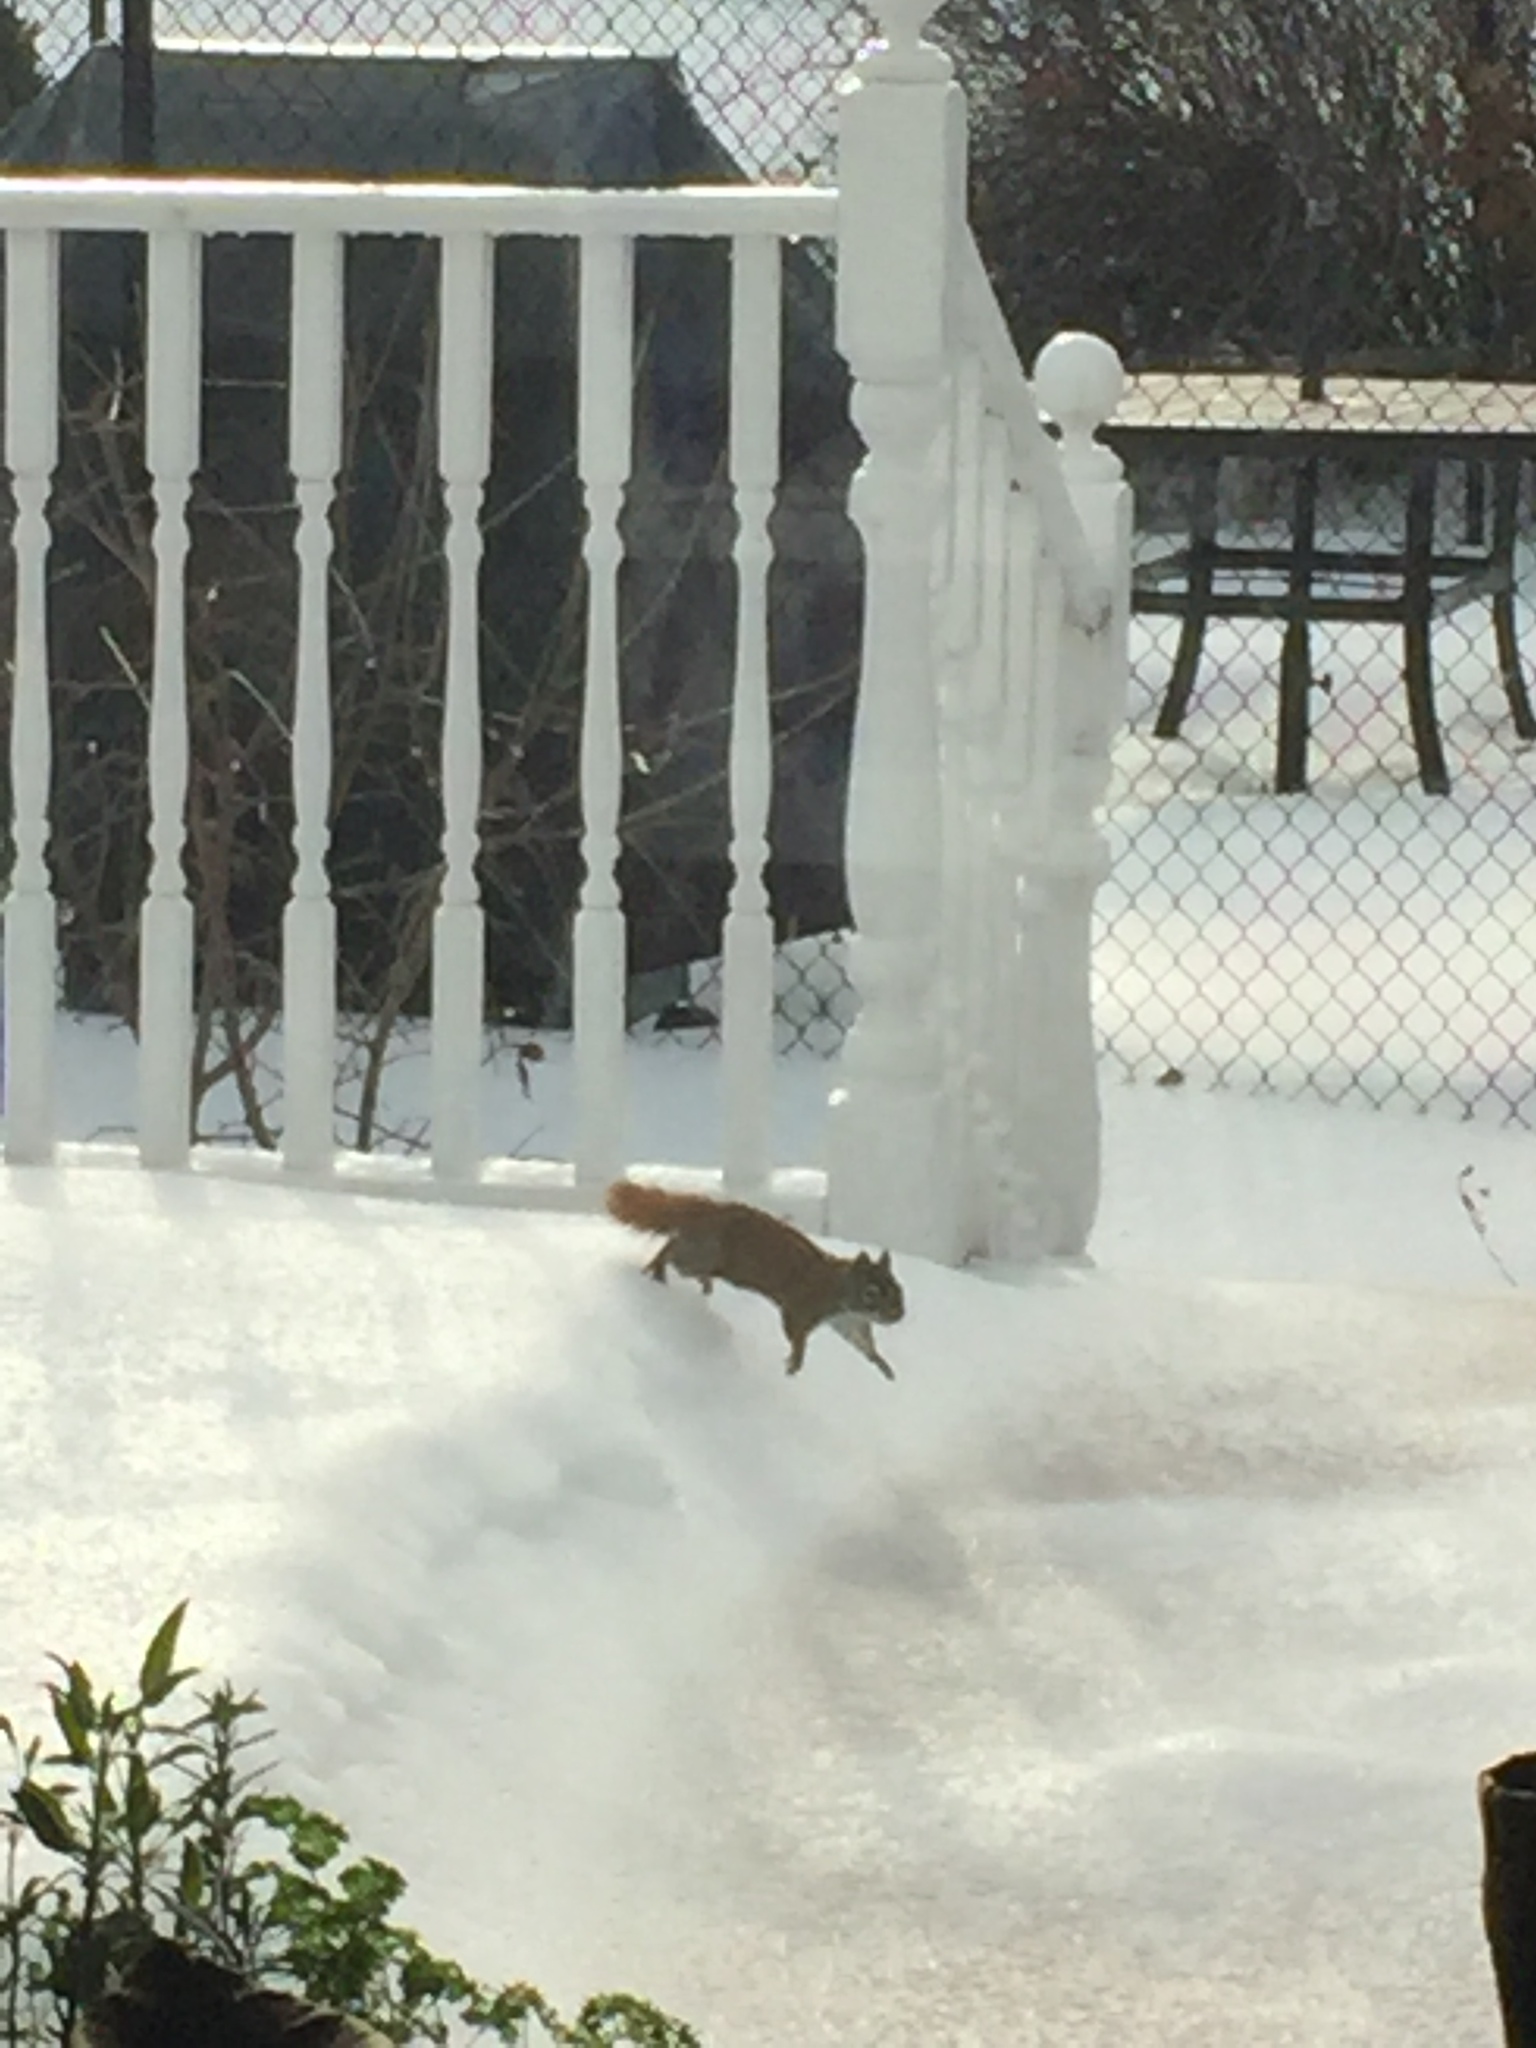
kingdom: Animalia
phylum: Chordata
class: Mammalia
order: Rodentia
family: Sciuridae
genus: Tamiasciurus
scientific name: Tamiasciurus hudsonicus
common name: Red squirrel
